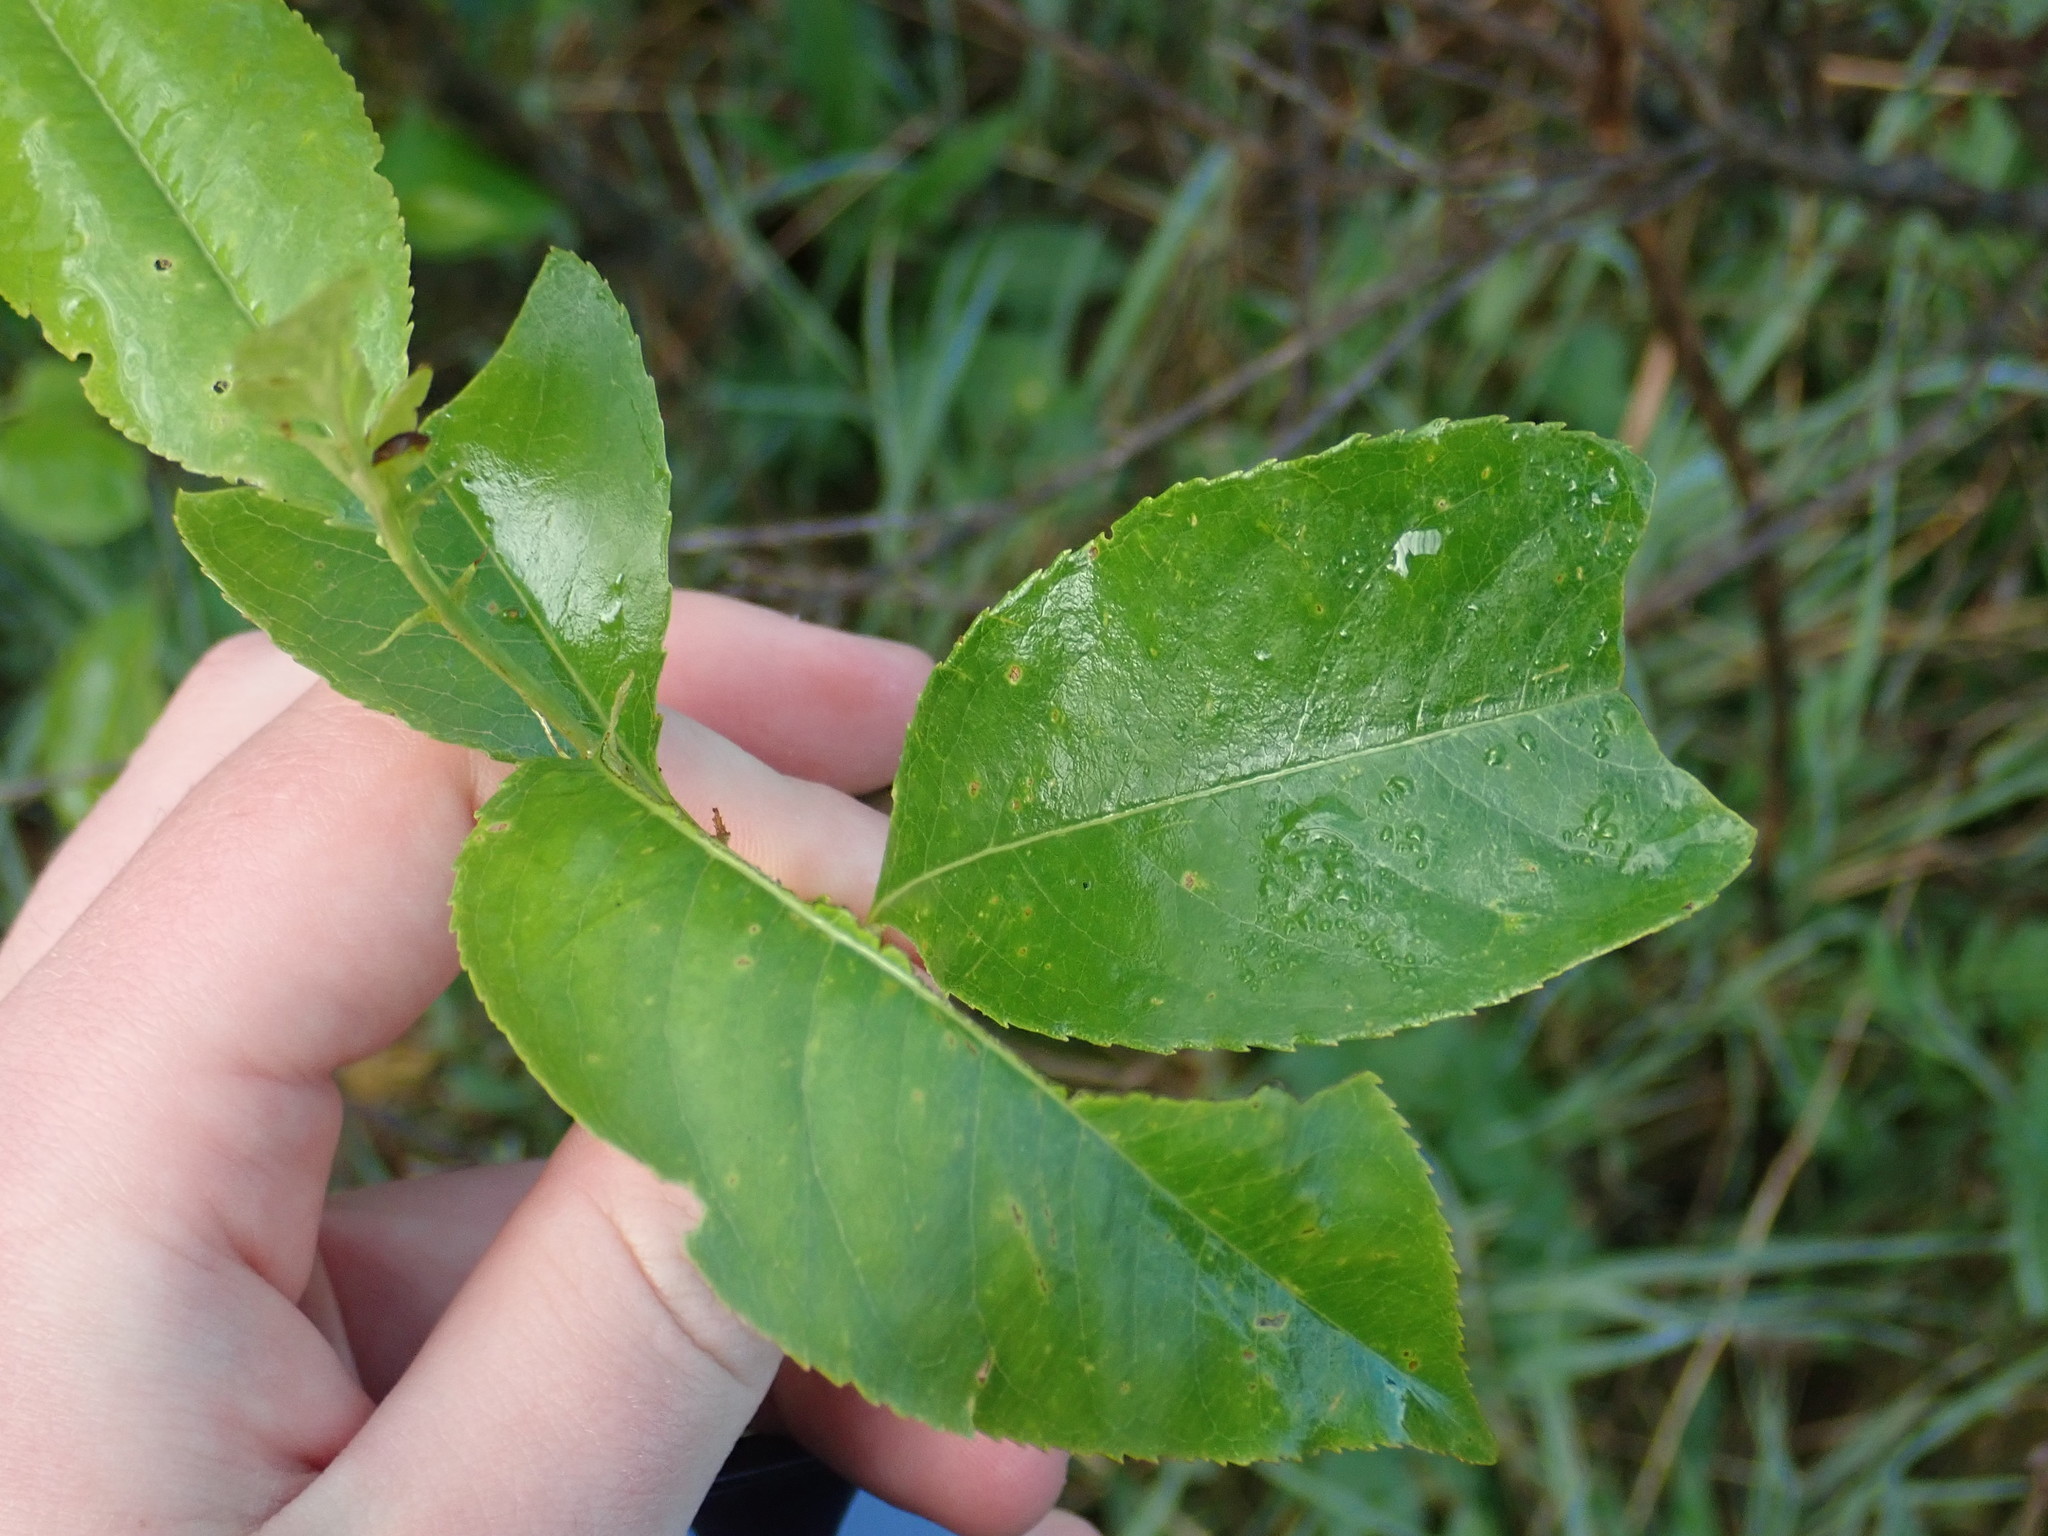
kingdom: Plantae
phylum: Tracheophyta
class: Magnoliopsida
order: Rosales
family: Rosaceae
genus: Prunus
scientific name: Prunus serotina
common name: Black cherry
